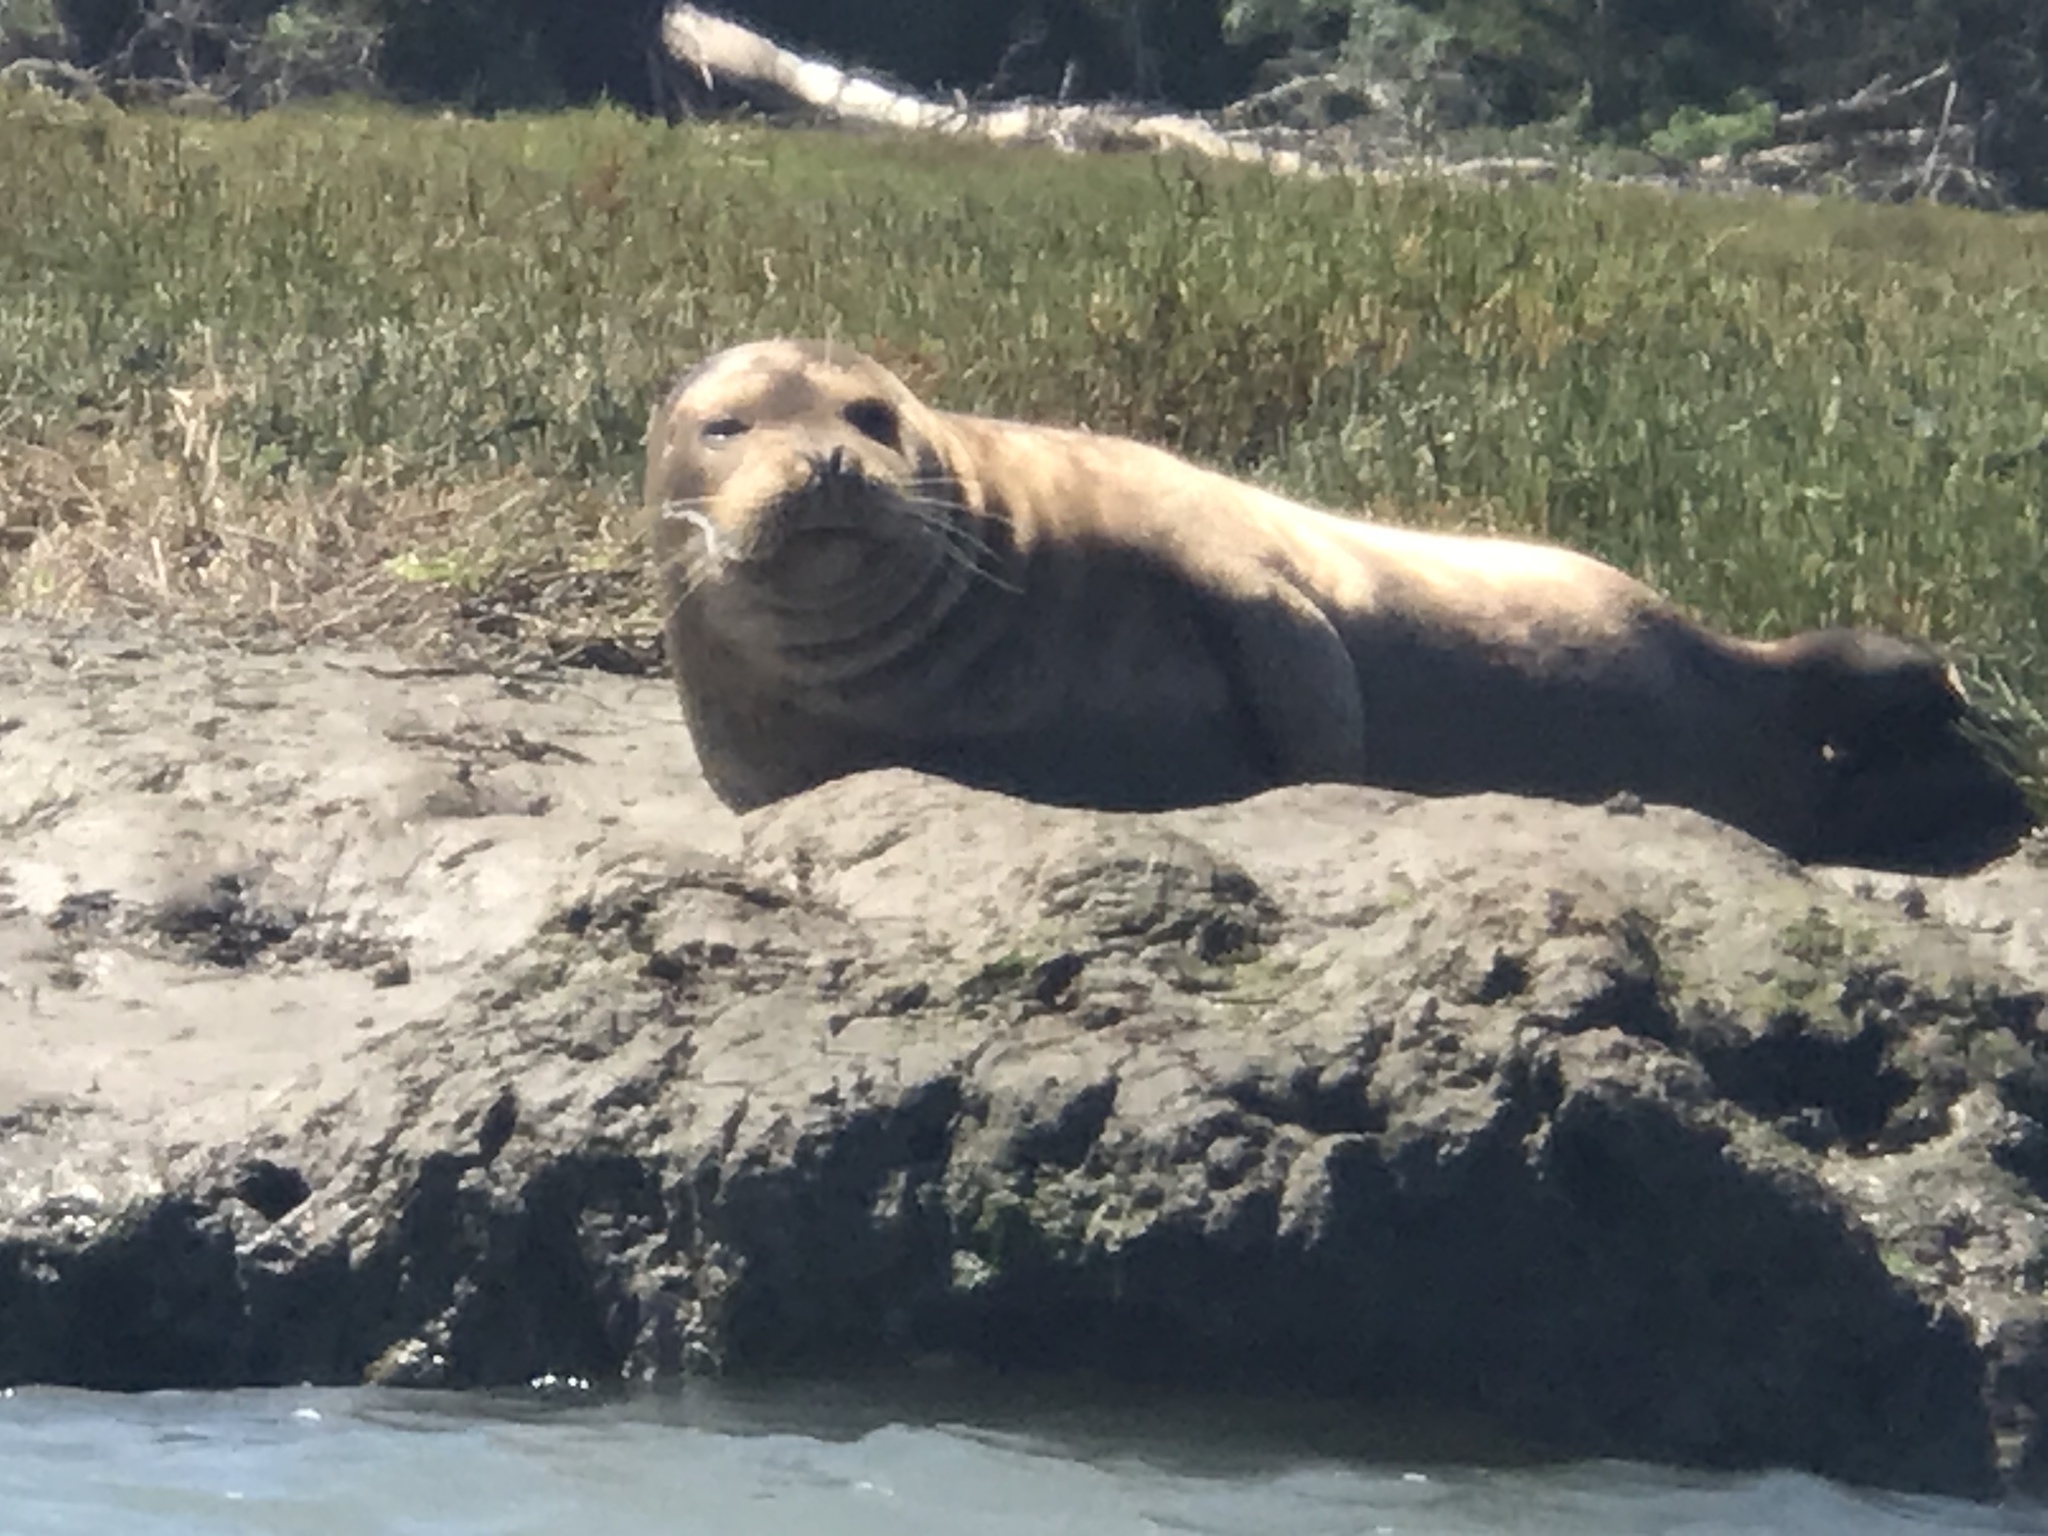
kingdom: Animalia
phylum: Chordata
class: Mammalia
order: Carnivora
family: Phocidae
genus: Phoca
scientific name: Phoca vitulina
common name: Harbor seal
